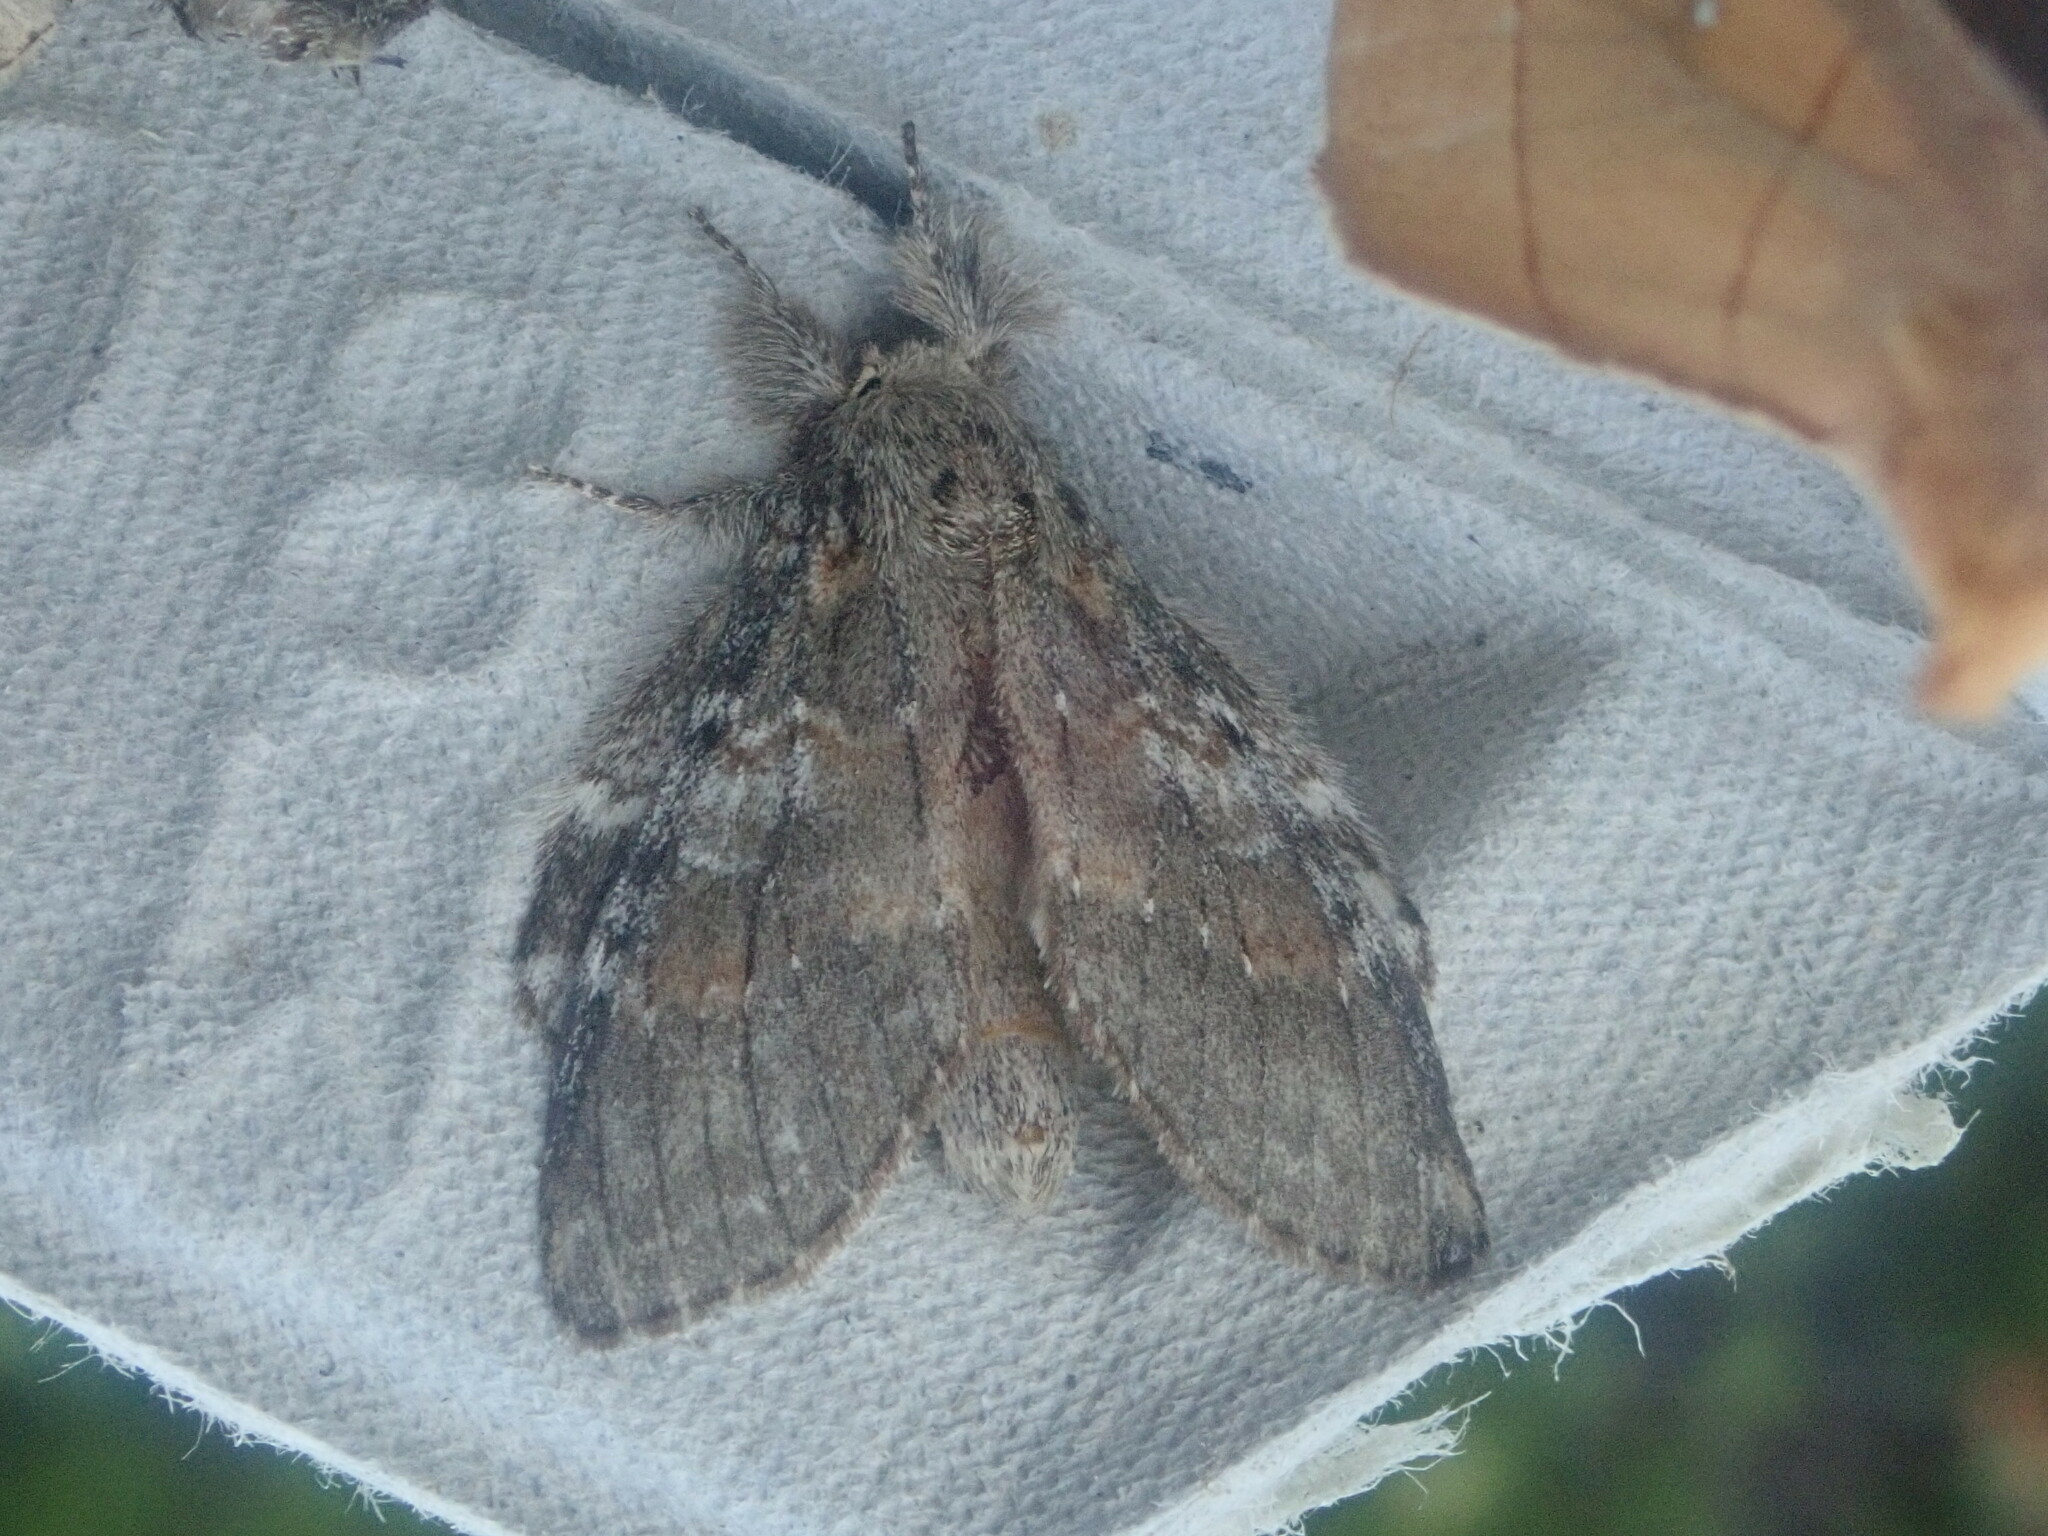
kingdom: Animalia
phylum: Arthropoda
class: Insecta
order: Lepidoptera
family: Notodontidae
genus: Peridea
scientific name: Peridea angulosa
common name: Angulose prominent
